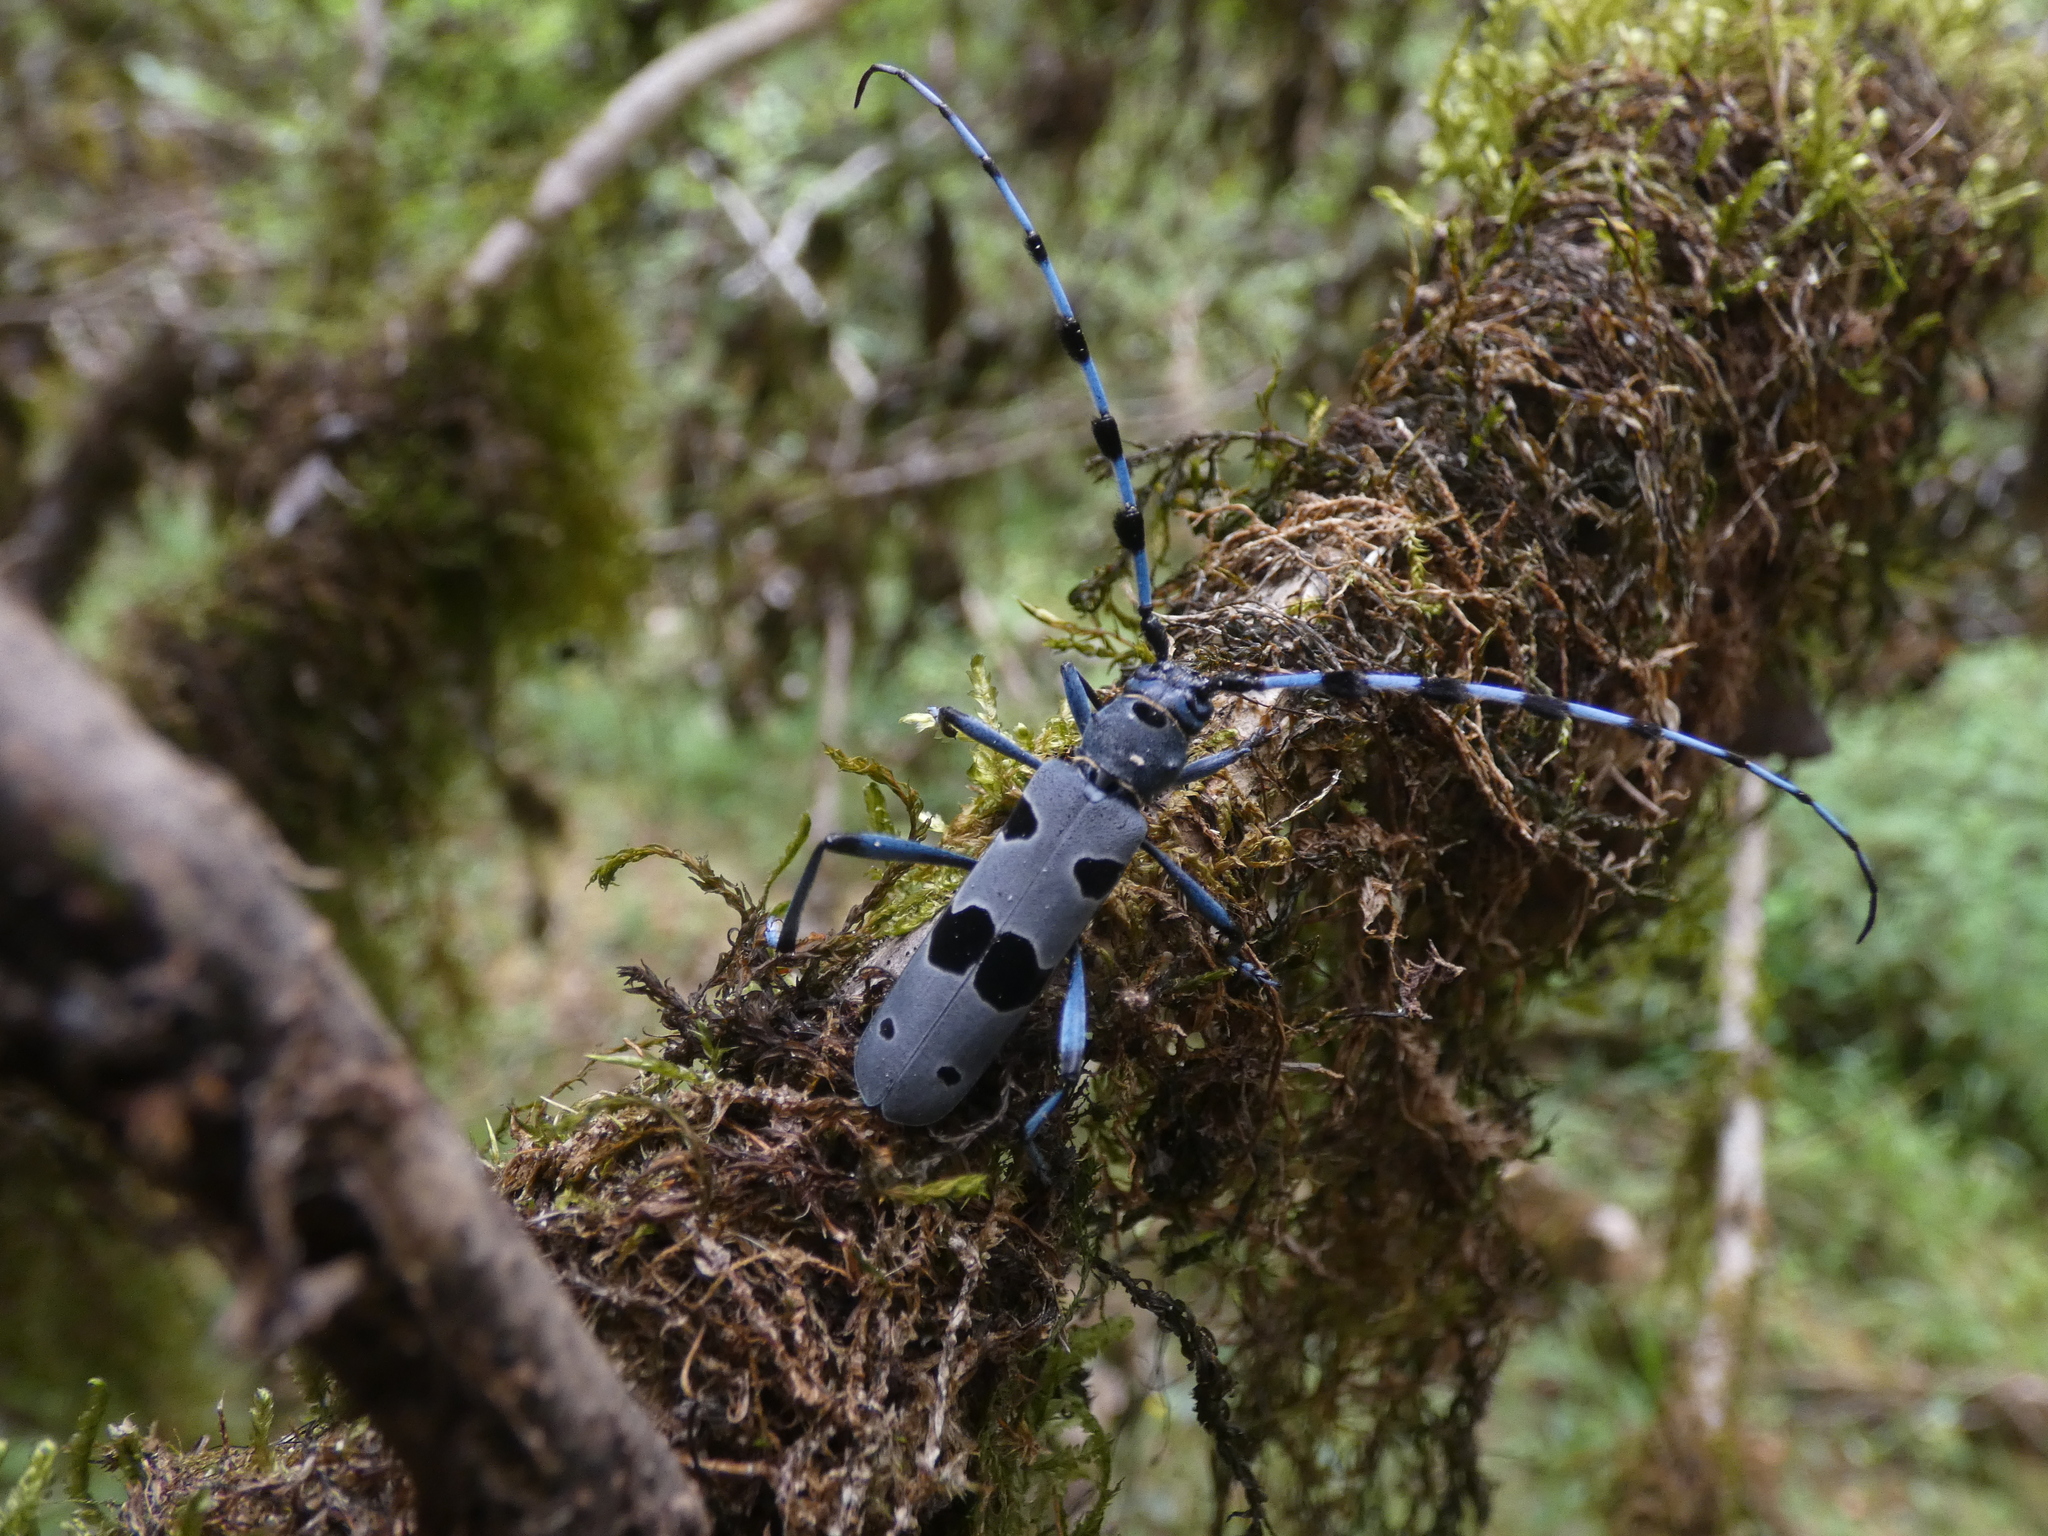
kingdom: Animalia
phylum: Arthropoda
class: Insecta
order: Coleoptera
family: Cerambycidae
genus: Rosalia
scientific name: Rosalia alpina
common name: Rosalia longicorn
